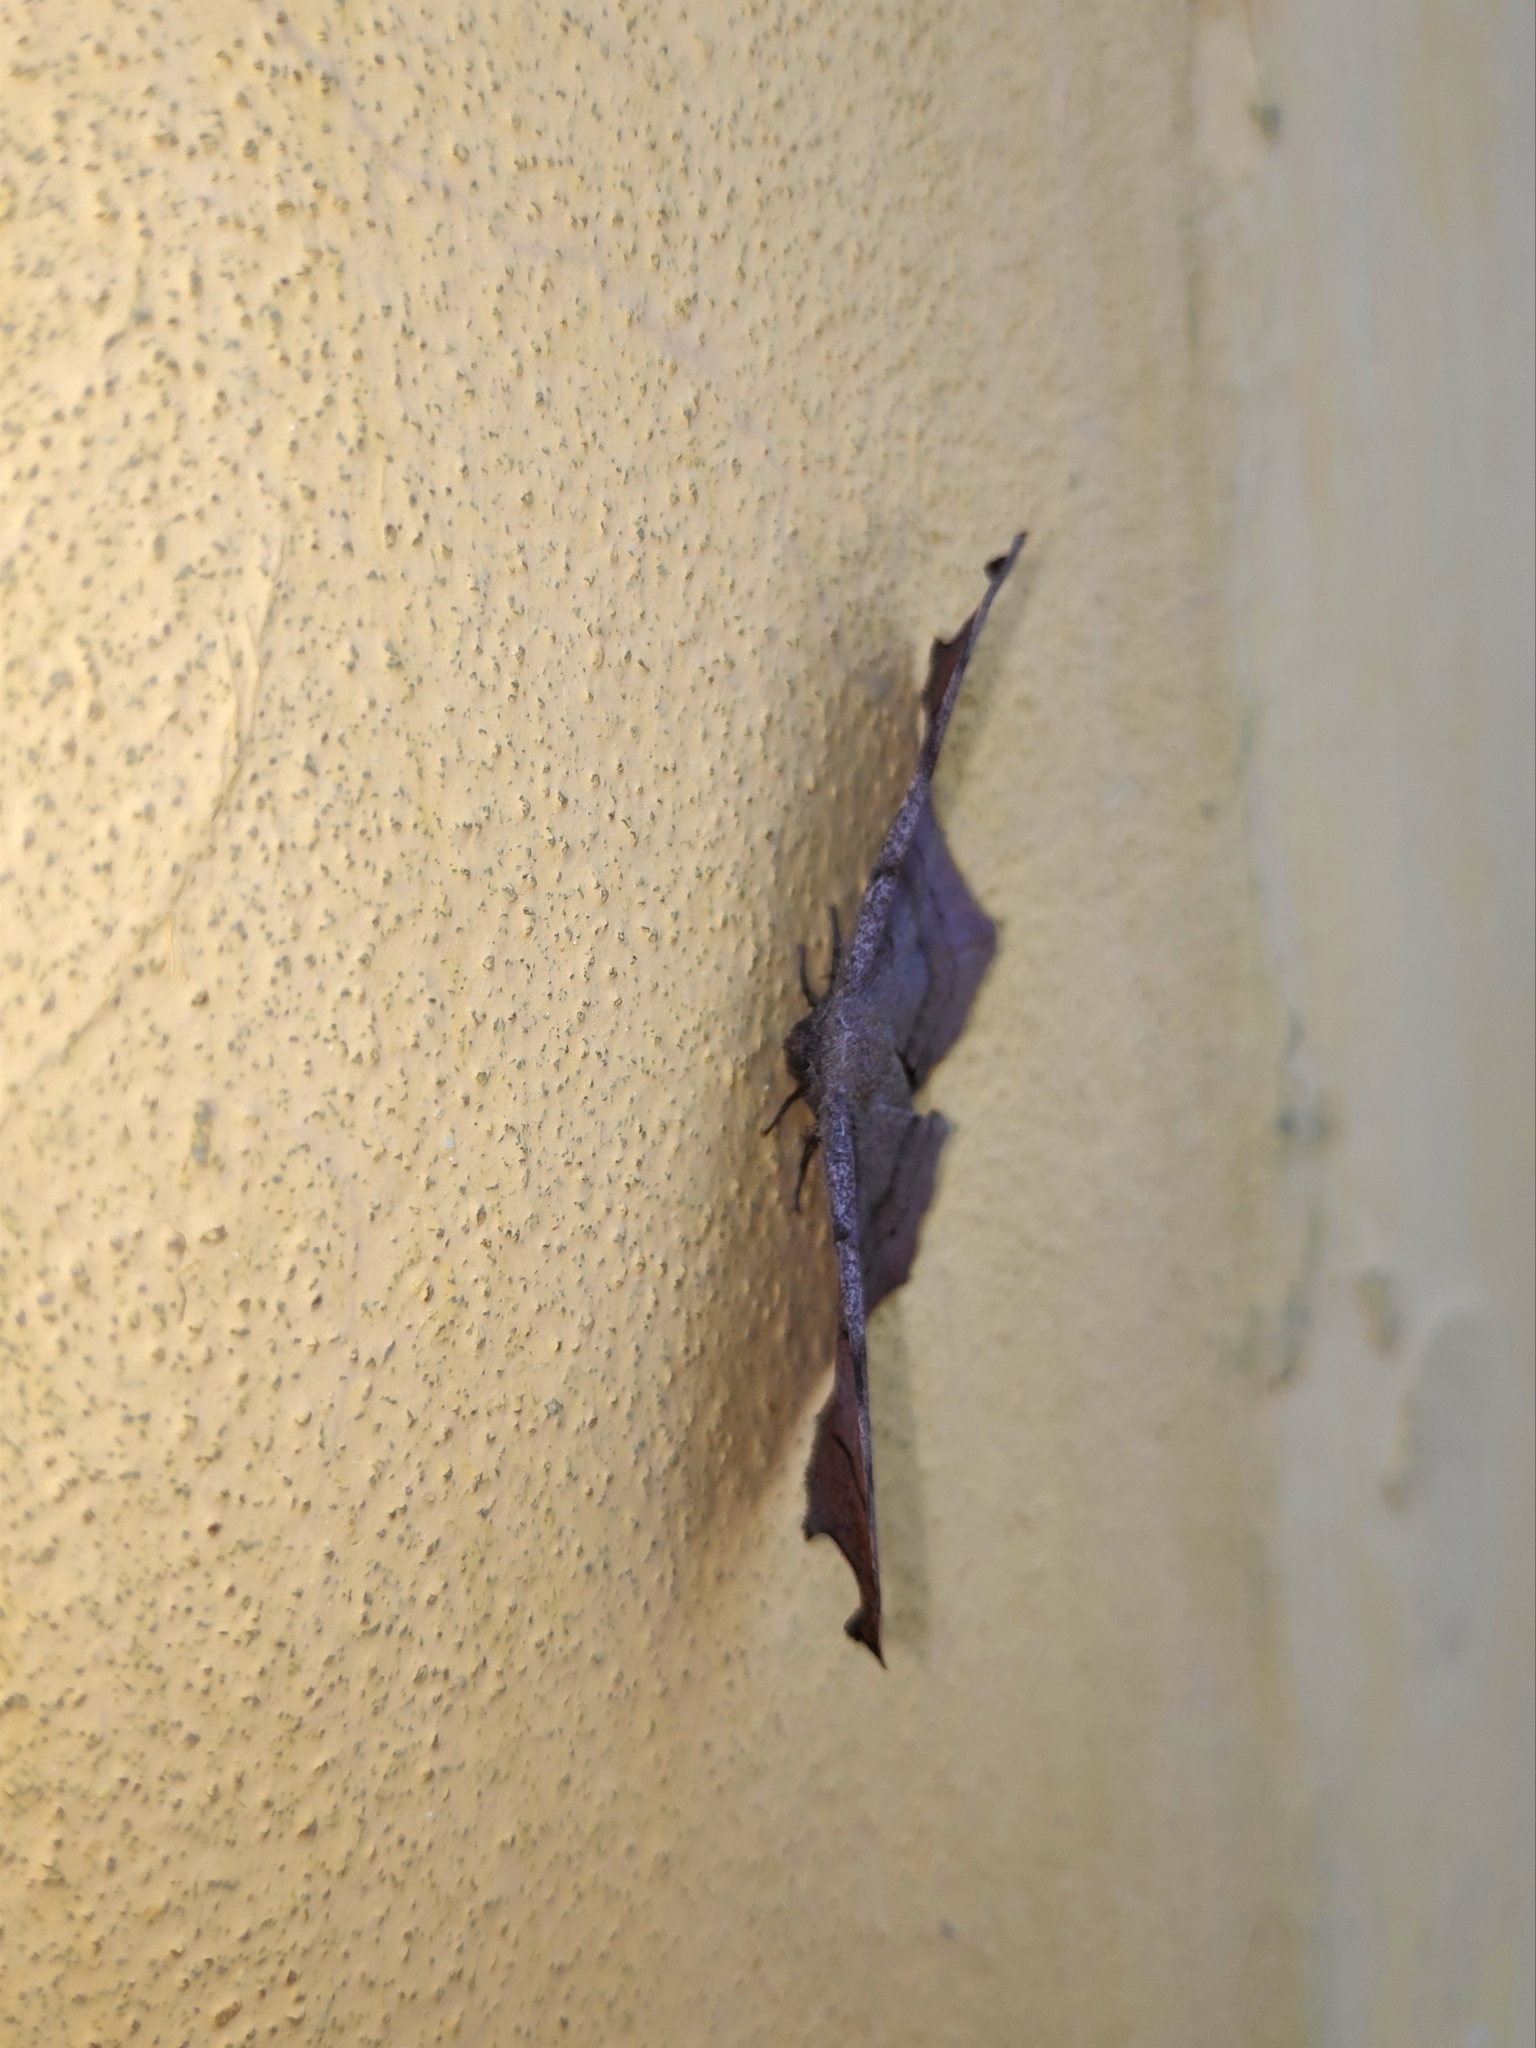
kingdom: Animalia
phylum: Arthropoda
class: Insecta
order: Lepidoptera
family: Geometridae
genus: Hyposidra
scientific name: Hyposidra talaca
